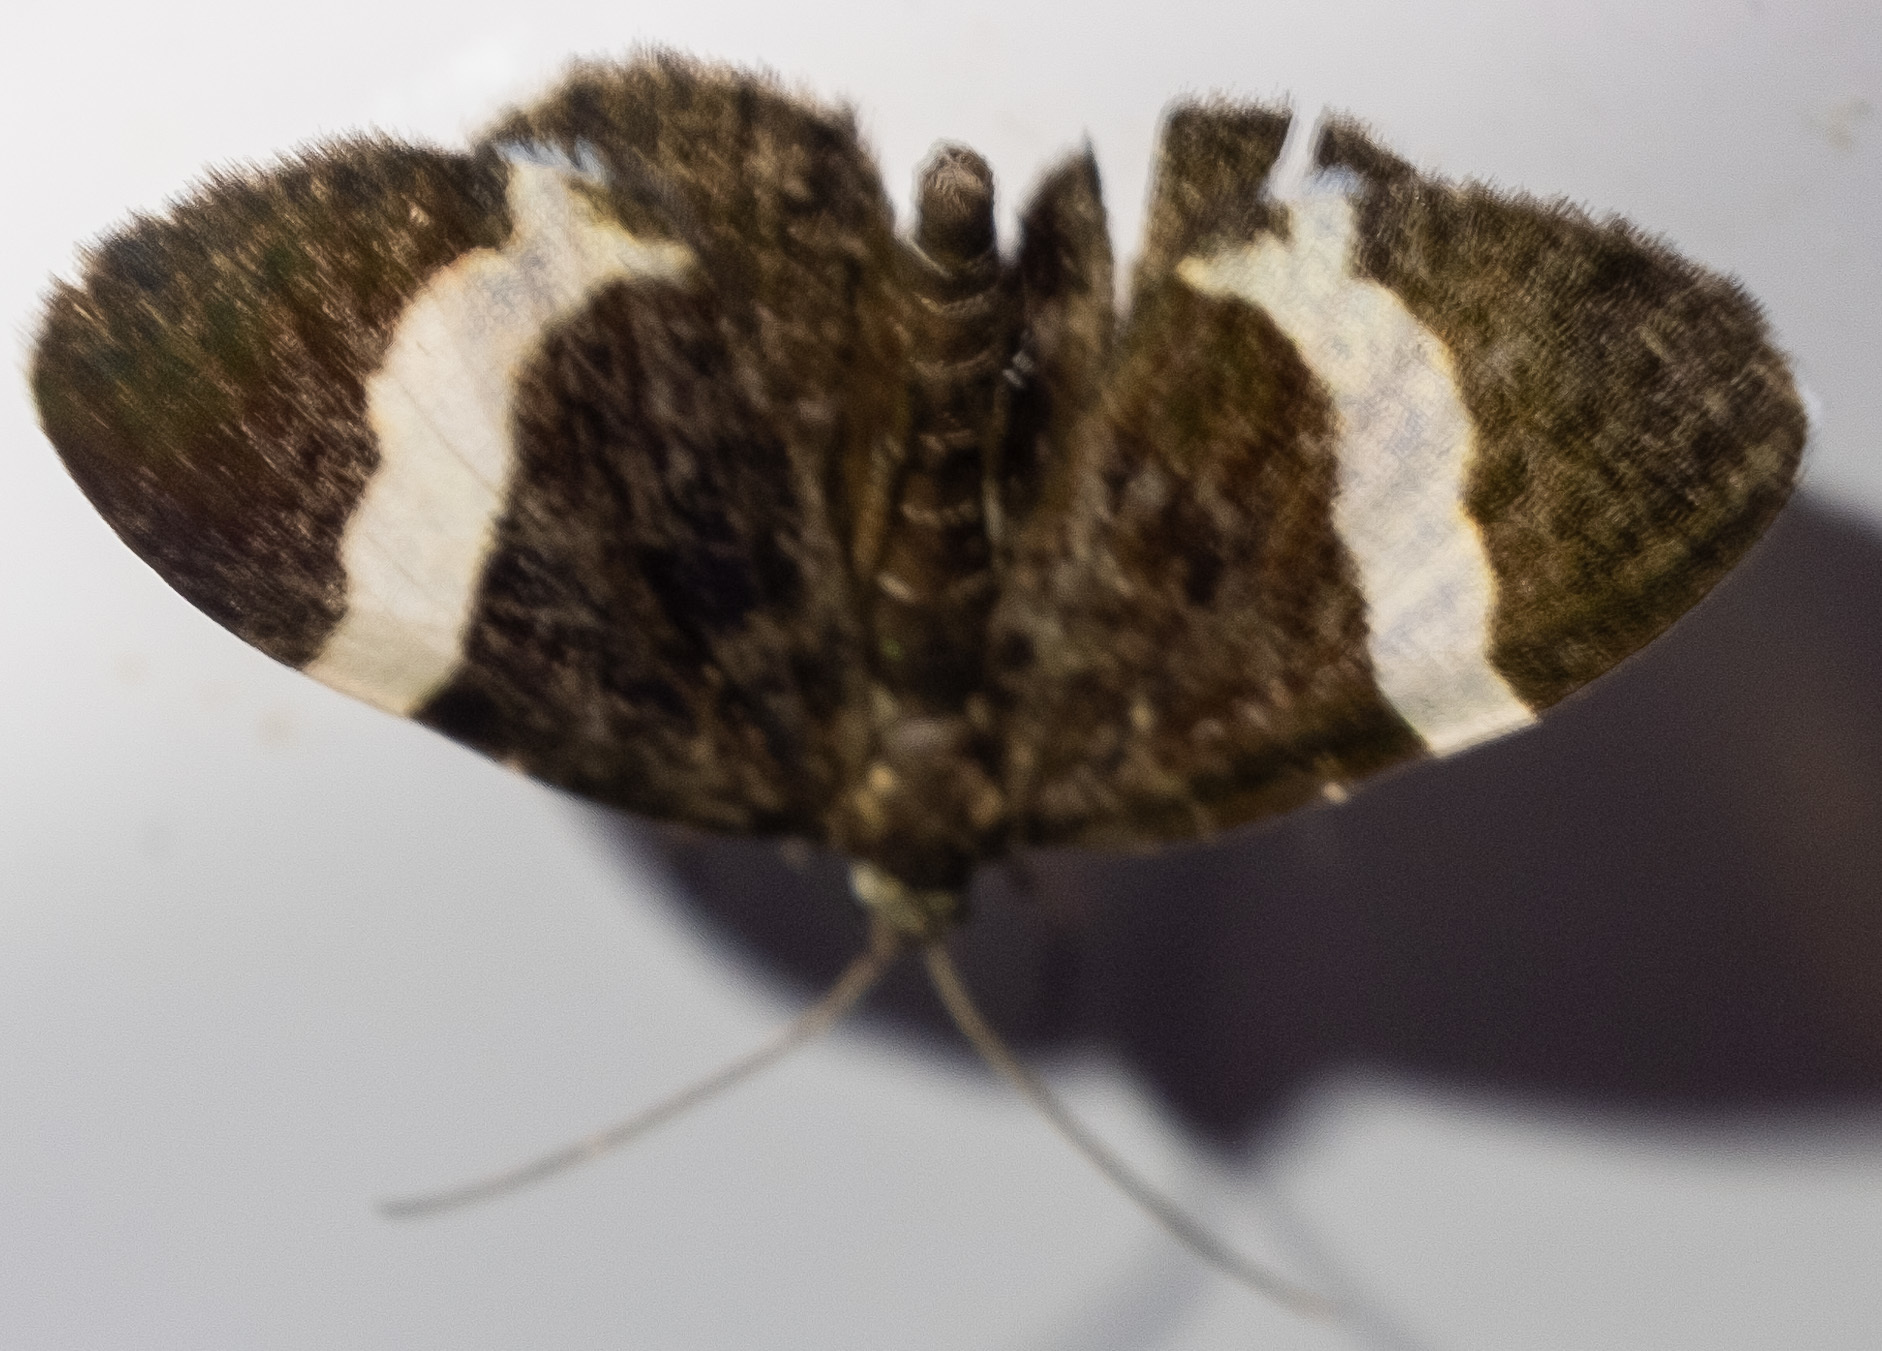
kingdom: Animalia
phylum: Arthropoda
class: Insecta
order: Lepidoptera
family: Geometridae
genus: Trichodezia
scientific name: Trichodezia albovittata
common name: White striped black
